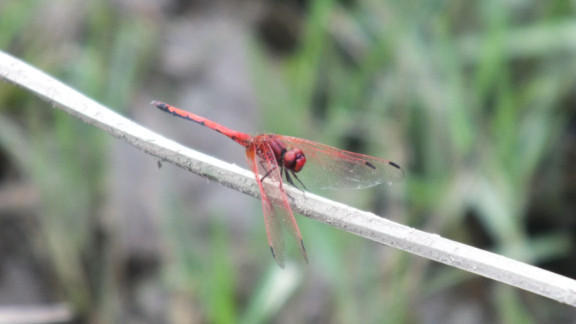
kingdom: Animalia
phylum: Arthropoda
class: Insecta
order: Odonata
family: Libellulidae
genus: Trithemis
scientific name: Trithemis arteriosa
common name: Red-veined dropwing
